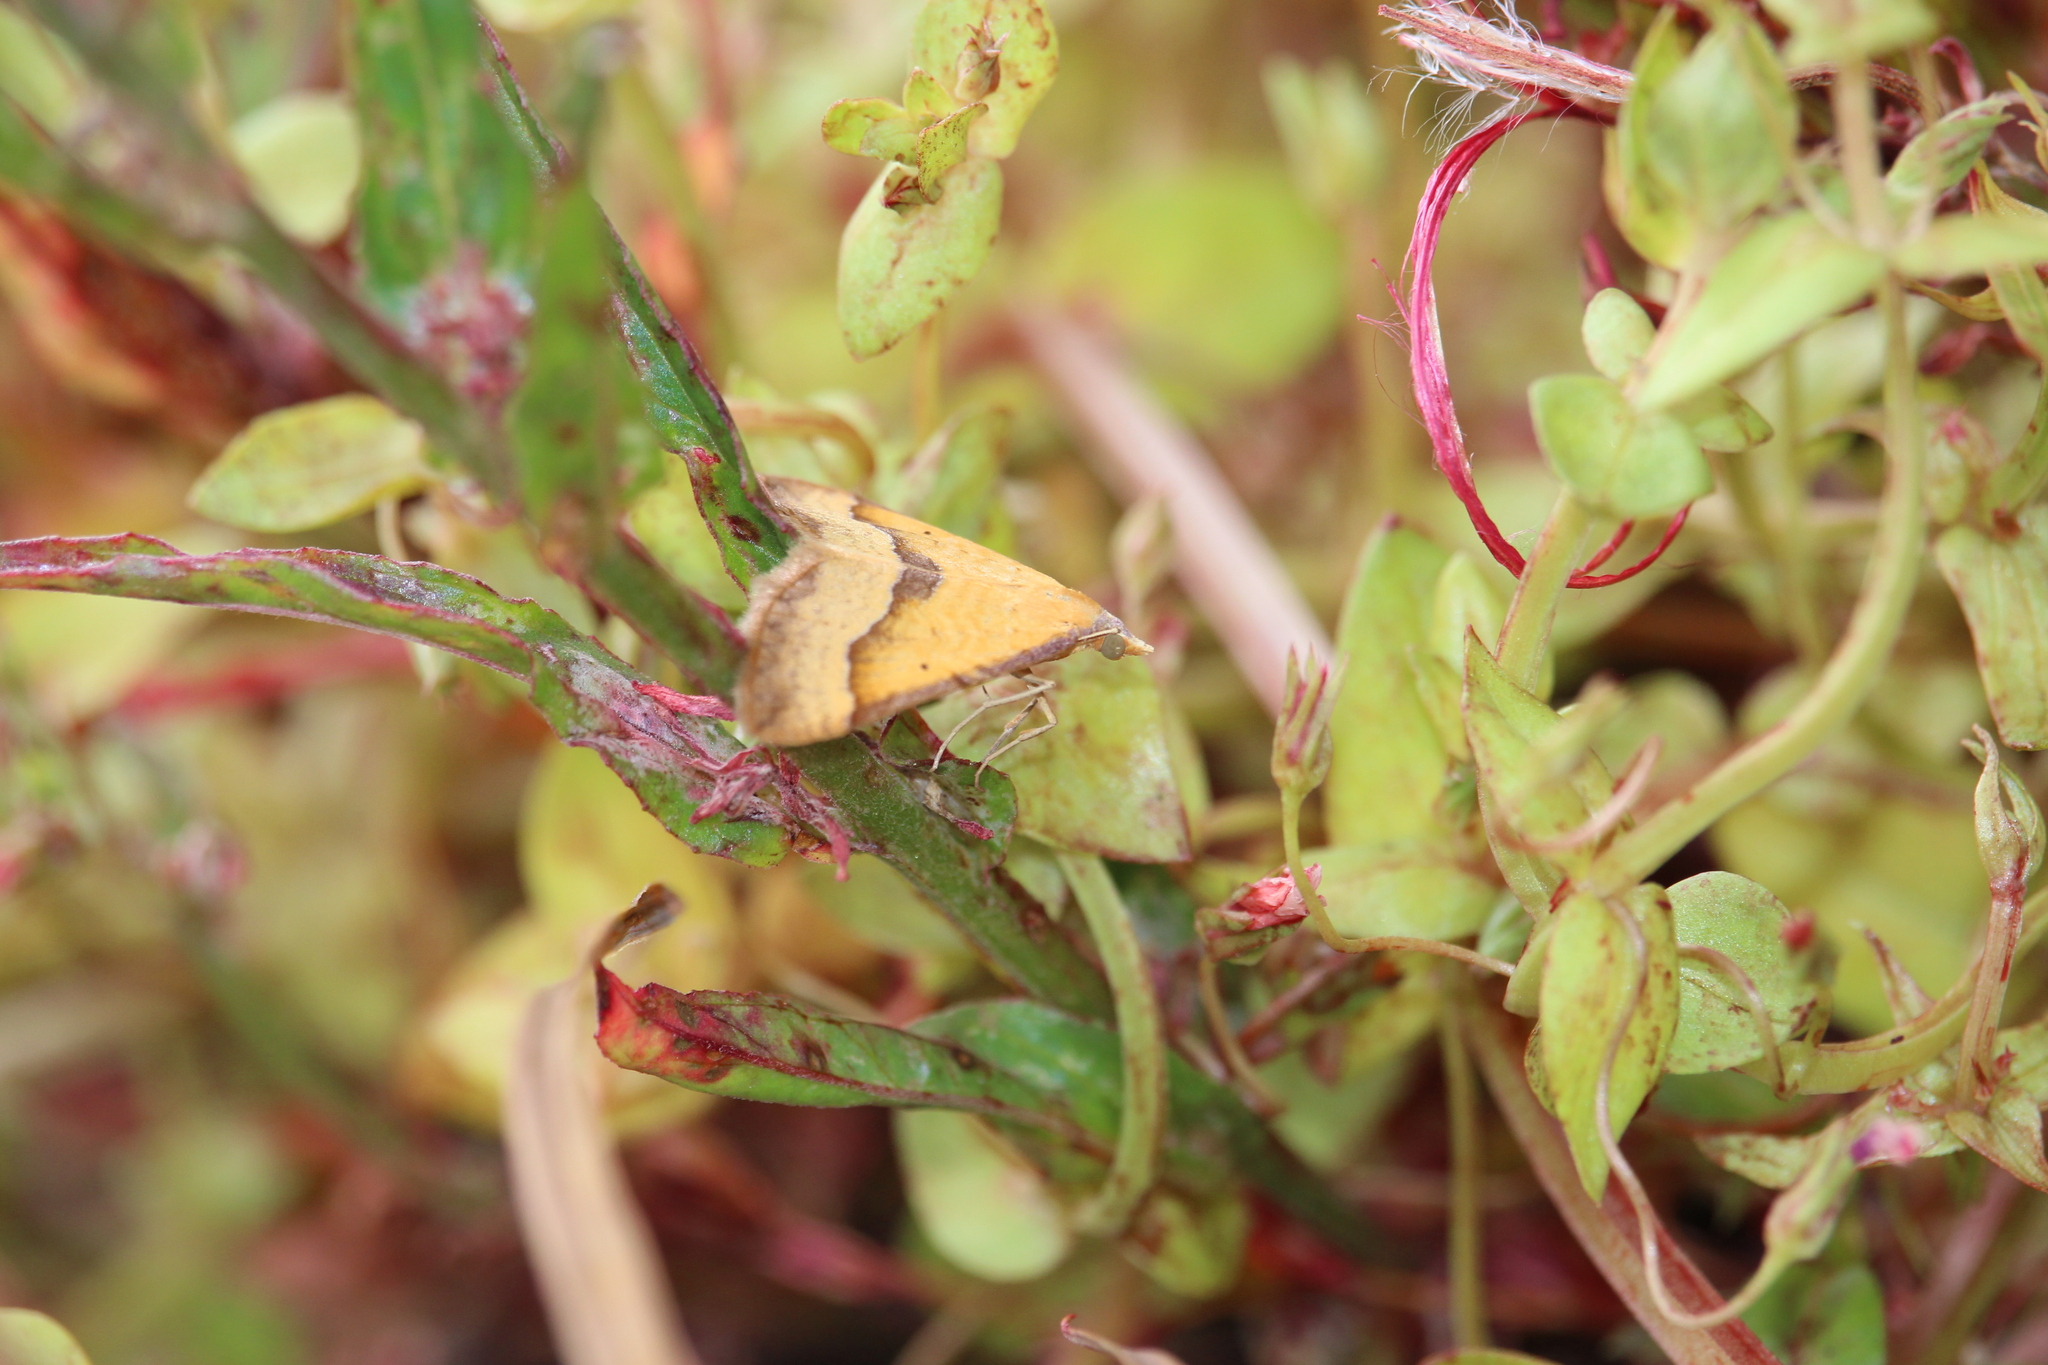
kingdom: Animalia
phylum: Arthropoda
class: Insecta
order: Lepidoptera
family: Geometridae
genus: Anachloris
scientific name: Anachloris subochraria
